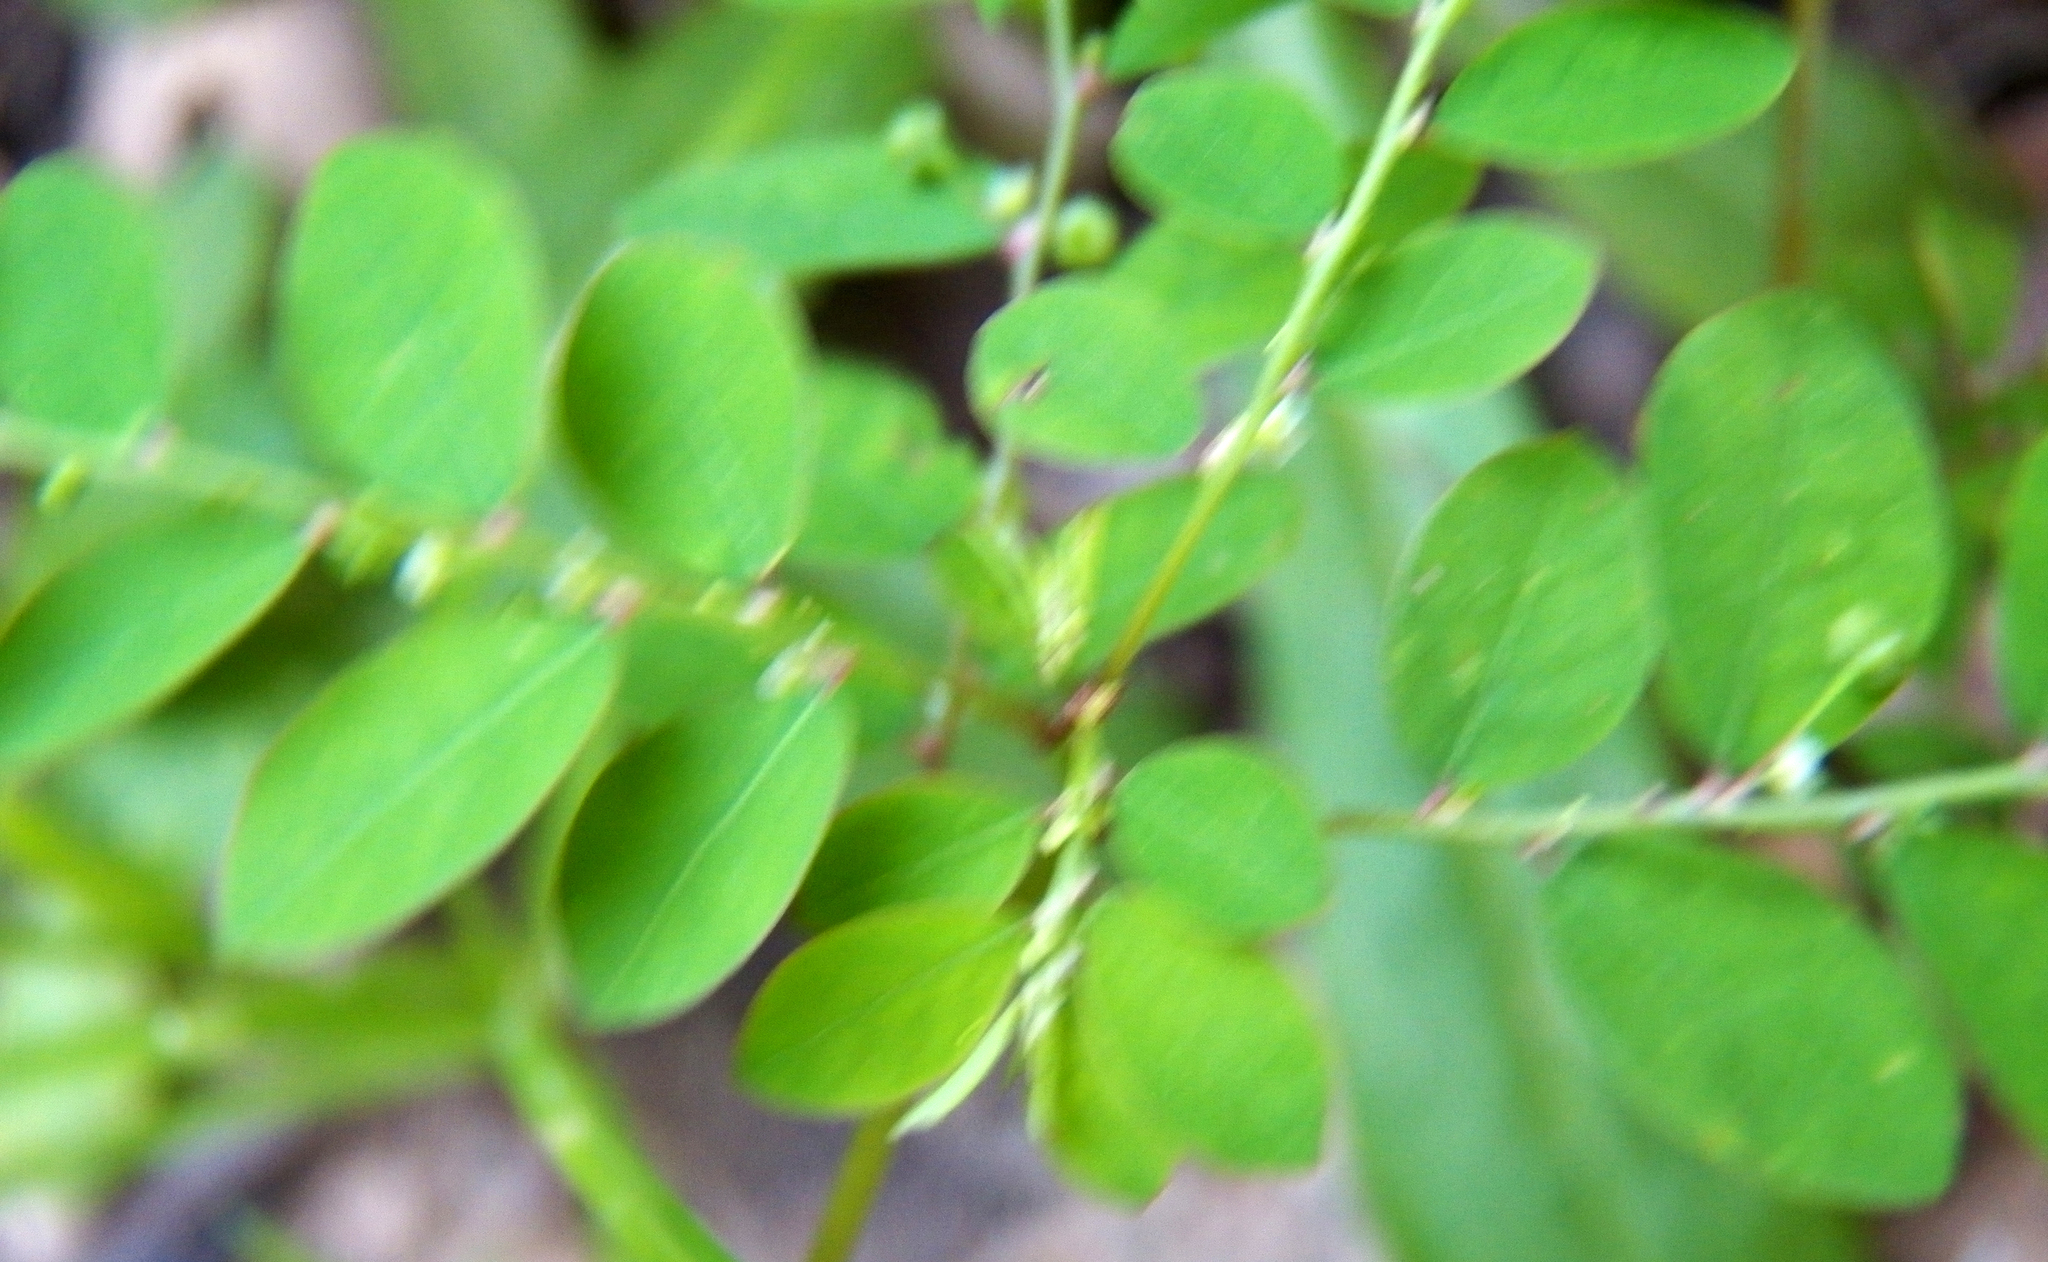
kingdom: Plantae
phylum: Tracheophyta
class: Magnoliopsida
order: Malpighiales
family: Phyllanthaceae
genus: Phyllanthus
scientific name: Phyllanthus tenellus
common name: Mascarene island leaf-flower
